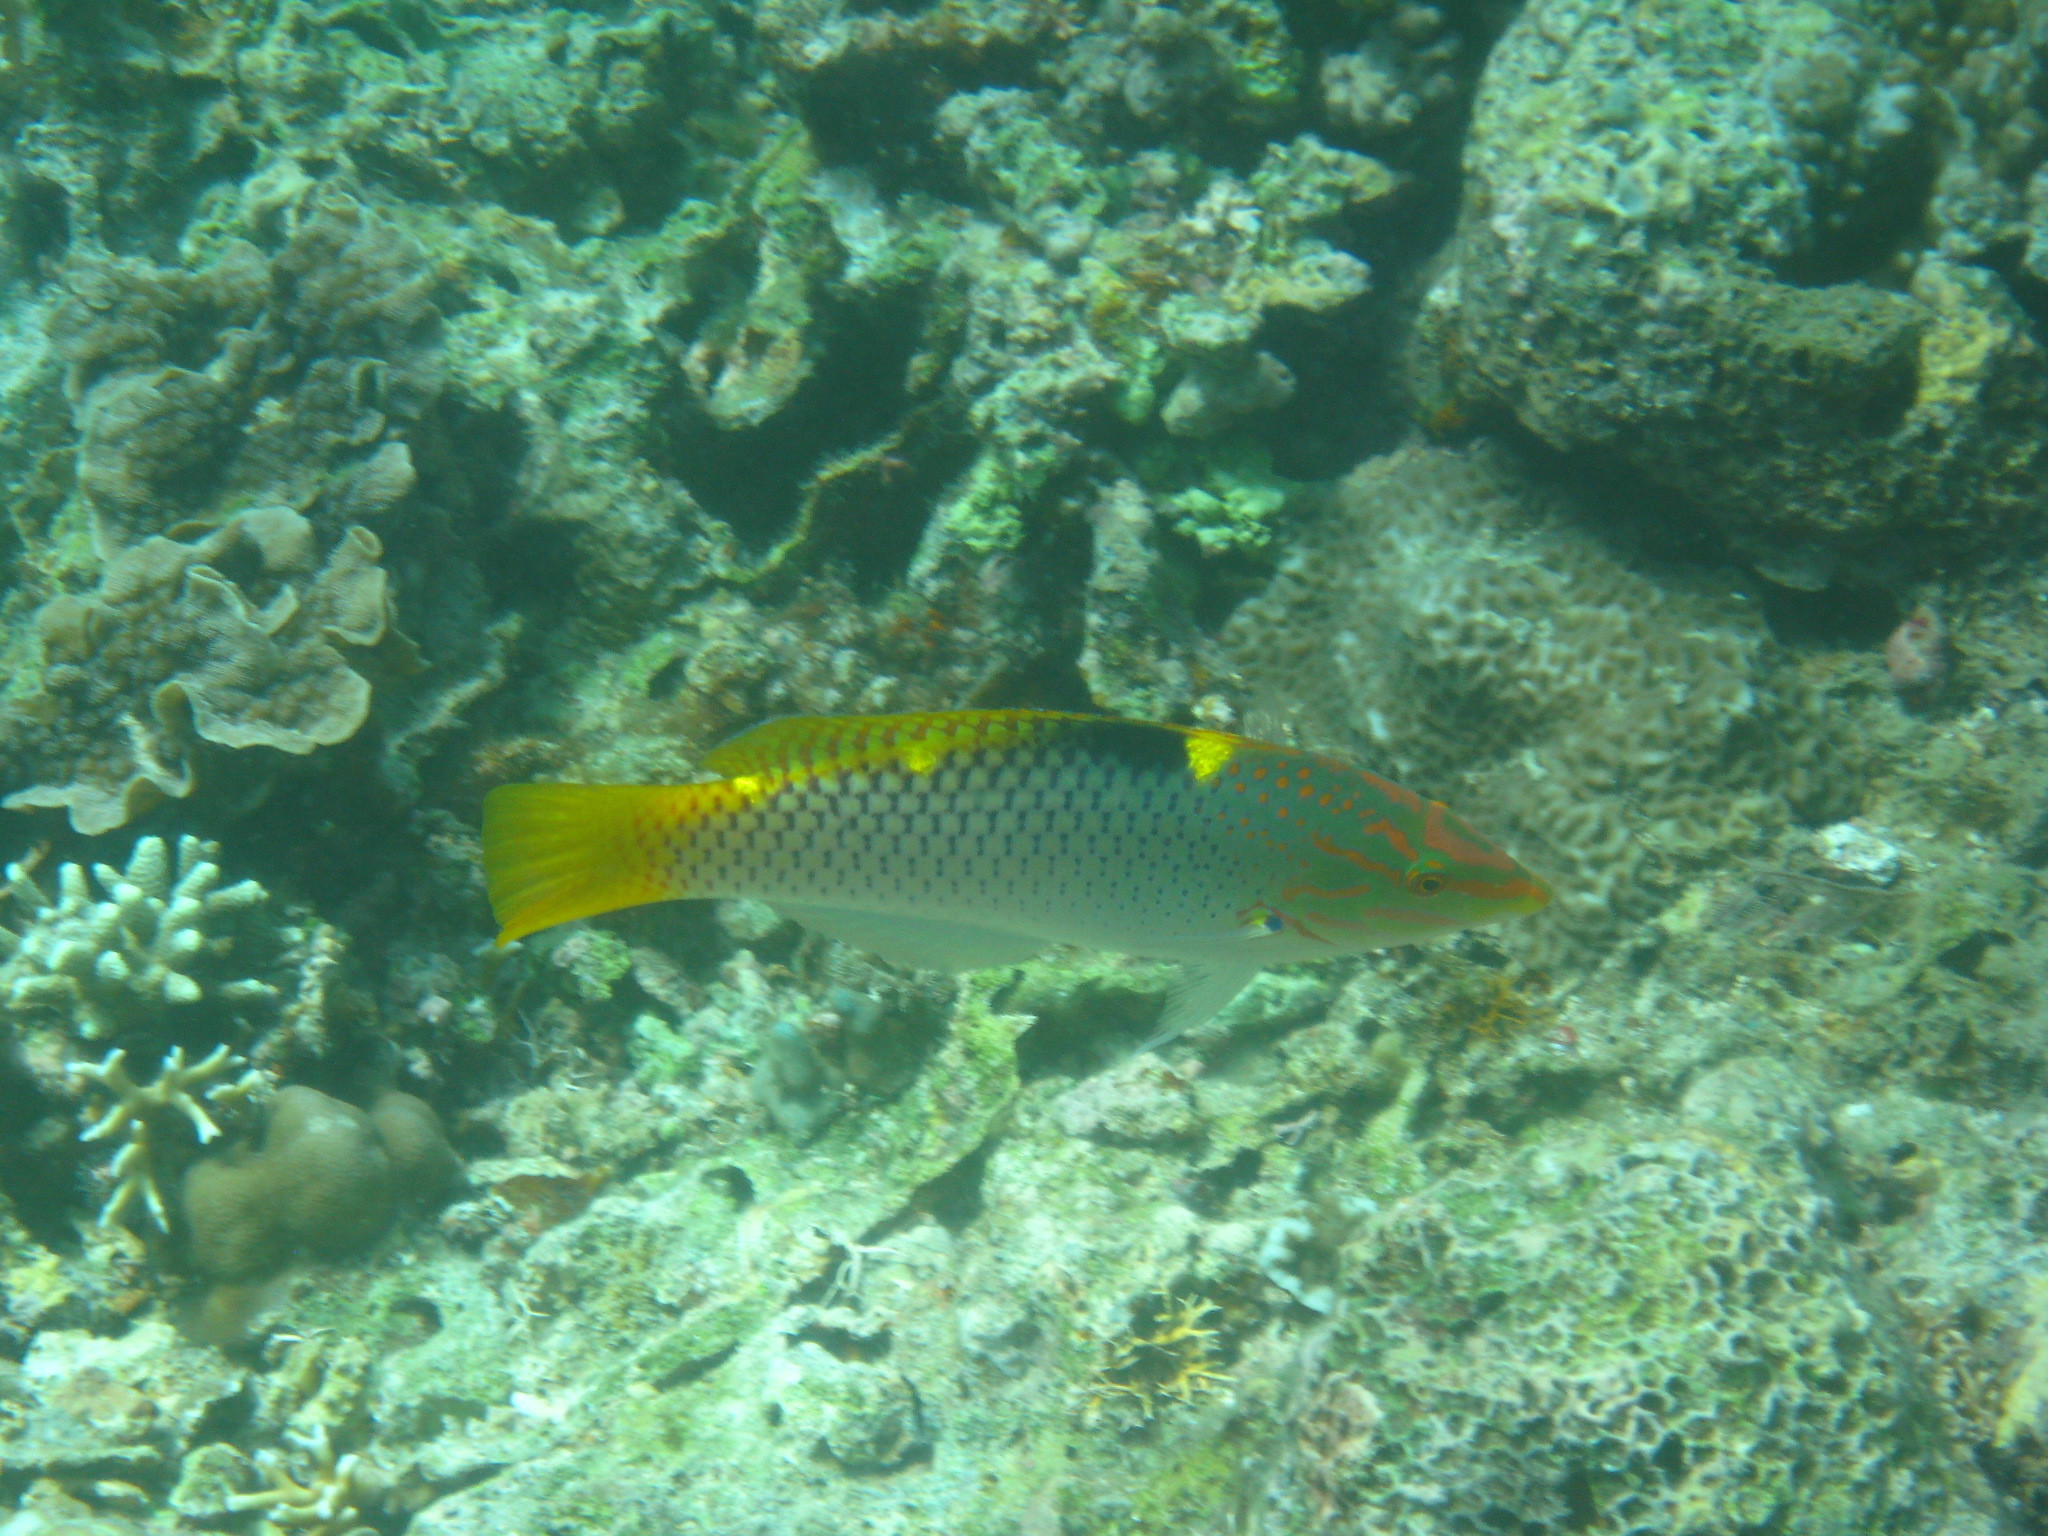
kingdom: Animalia
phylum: Chordata
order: Perciformes
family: Labridae
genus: Halichoeres
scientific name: Halichoeres hortulanus
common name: Checkerboard wrasse
